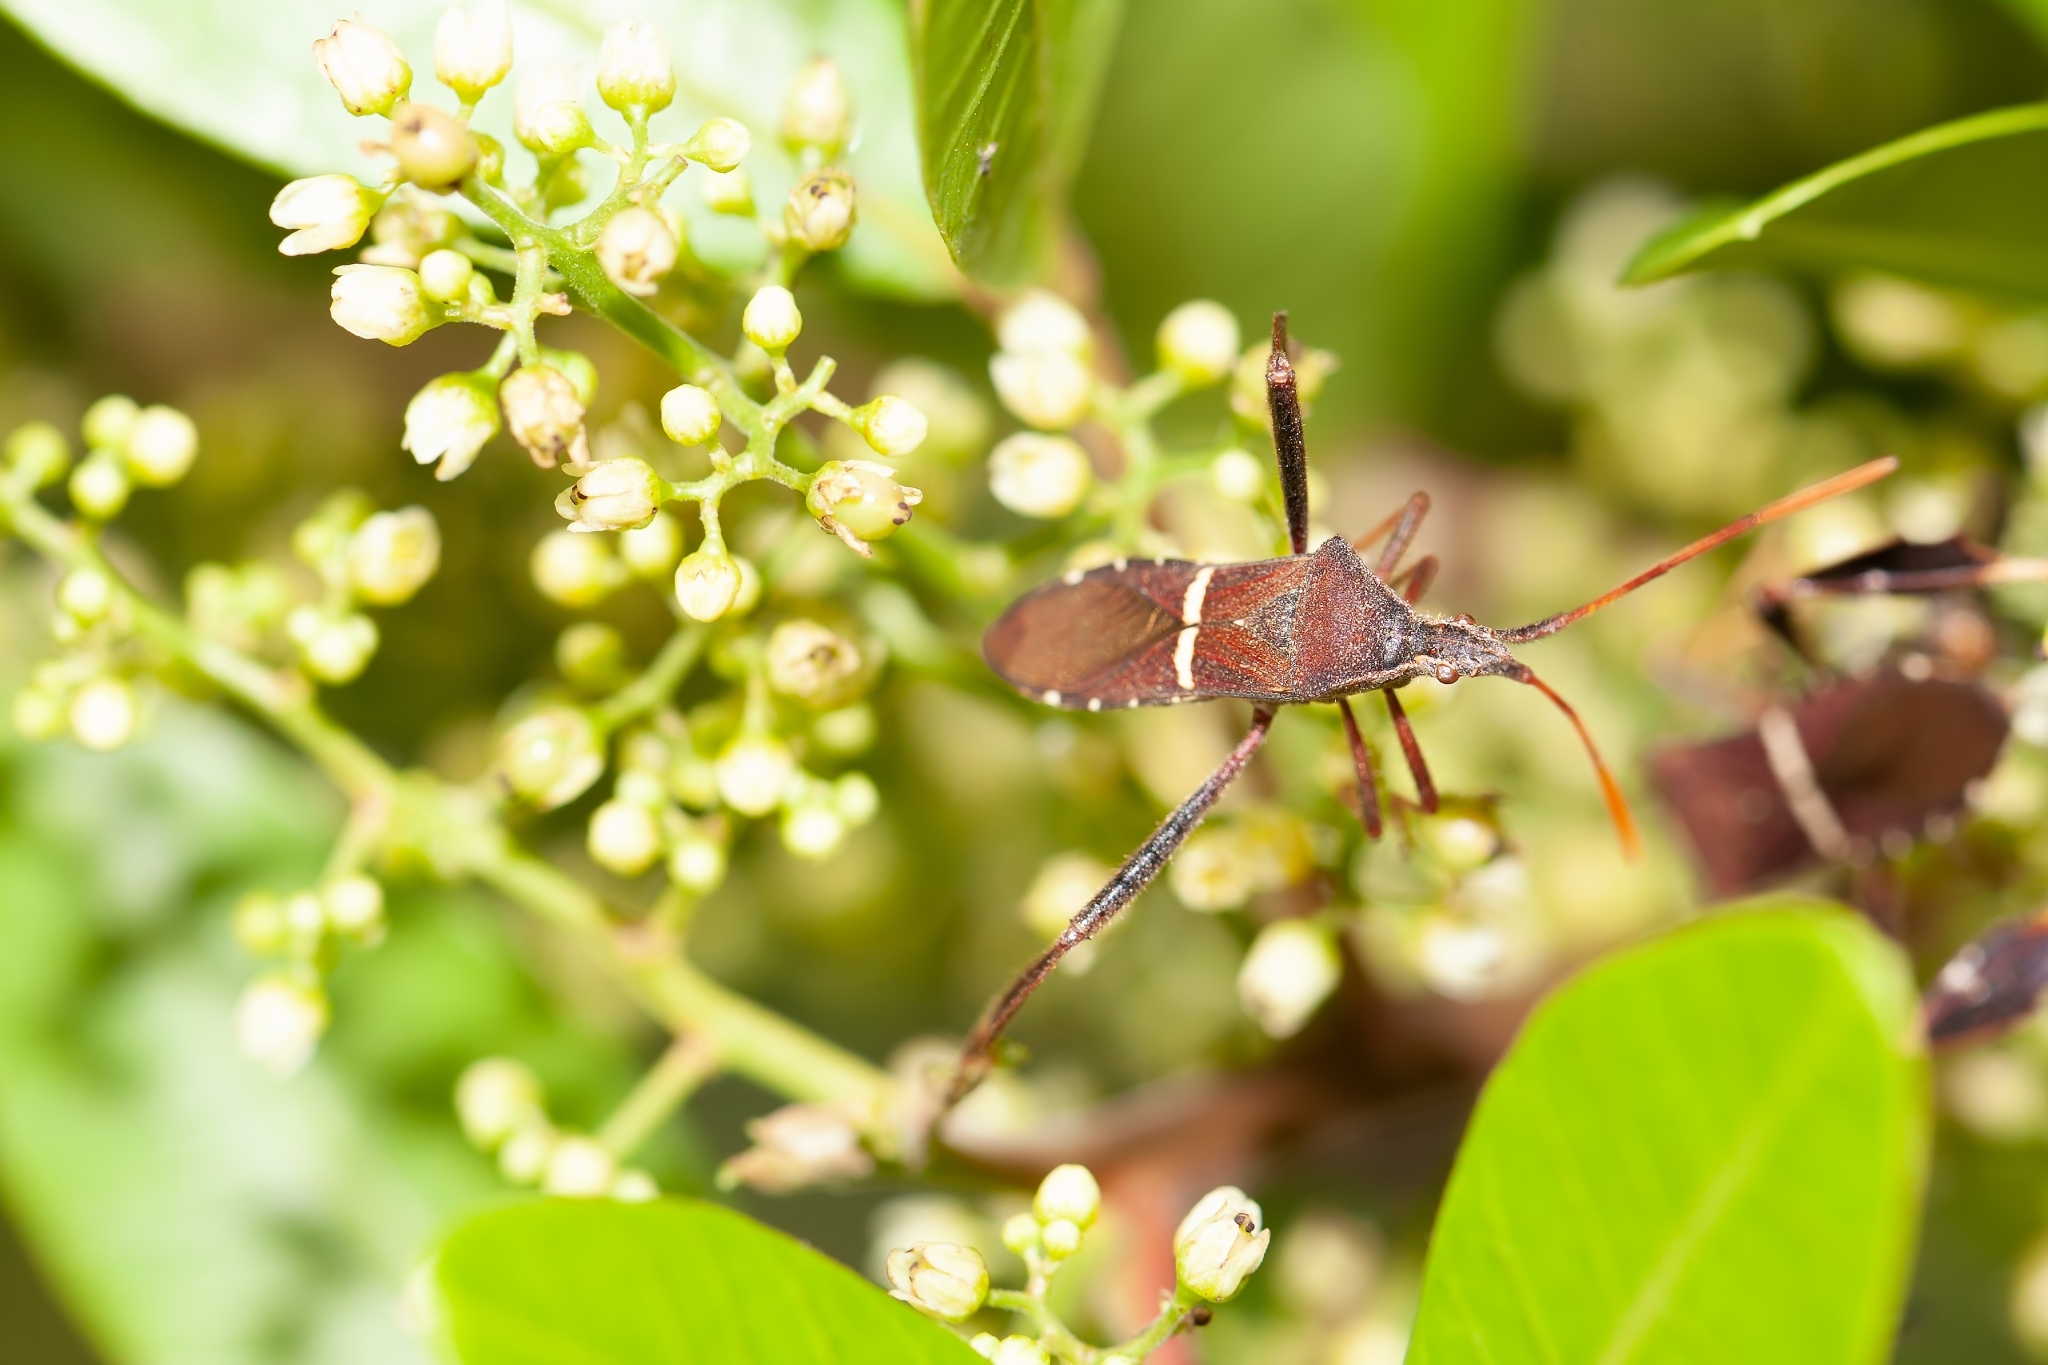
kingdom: Animalia
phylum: Arthropoda
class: Insecta
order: Hemiptera
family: Coreidae
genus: Leptoglossus
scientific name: Leptoglossus phyllopus
